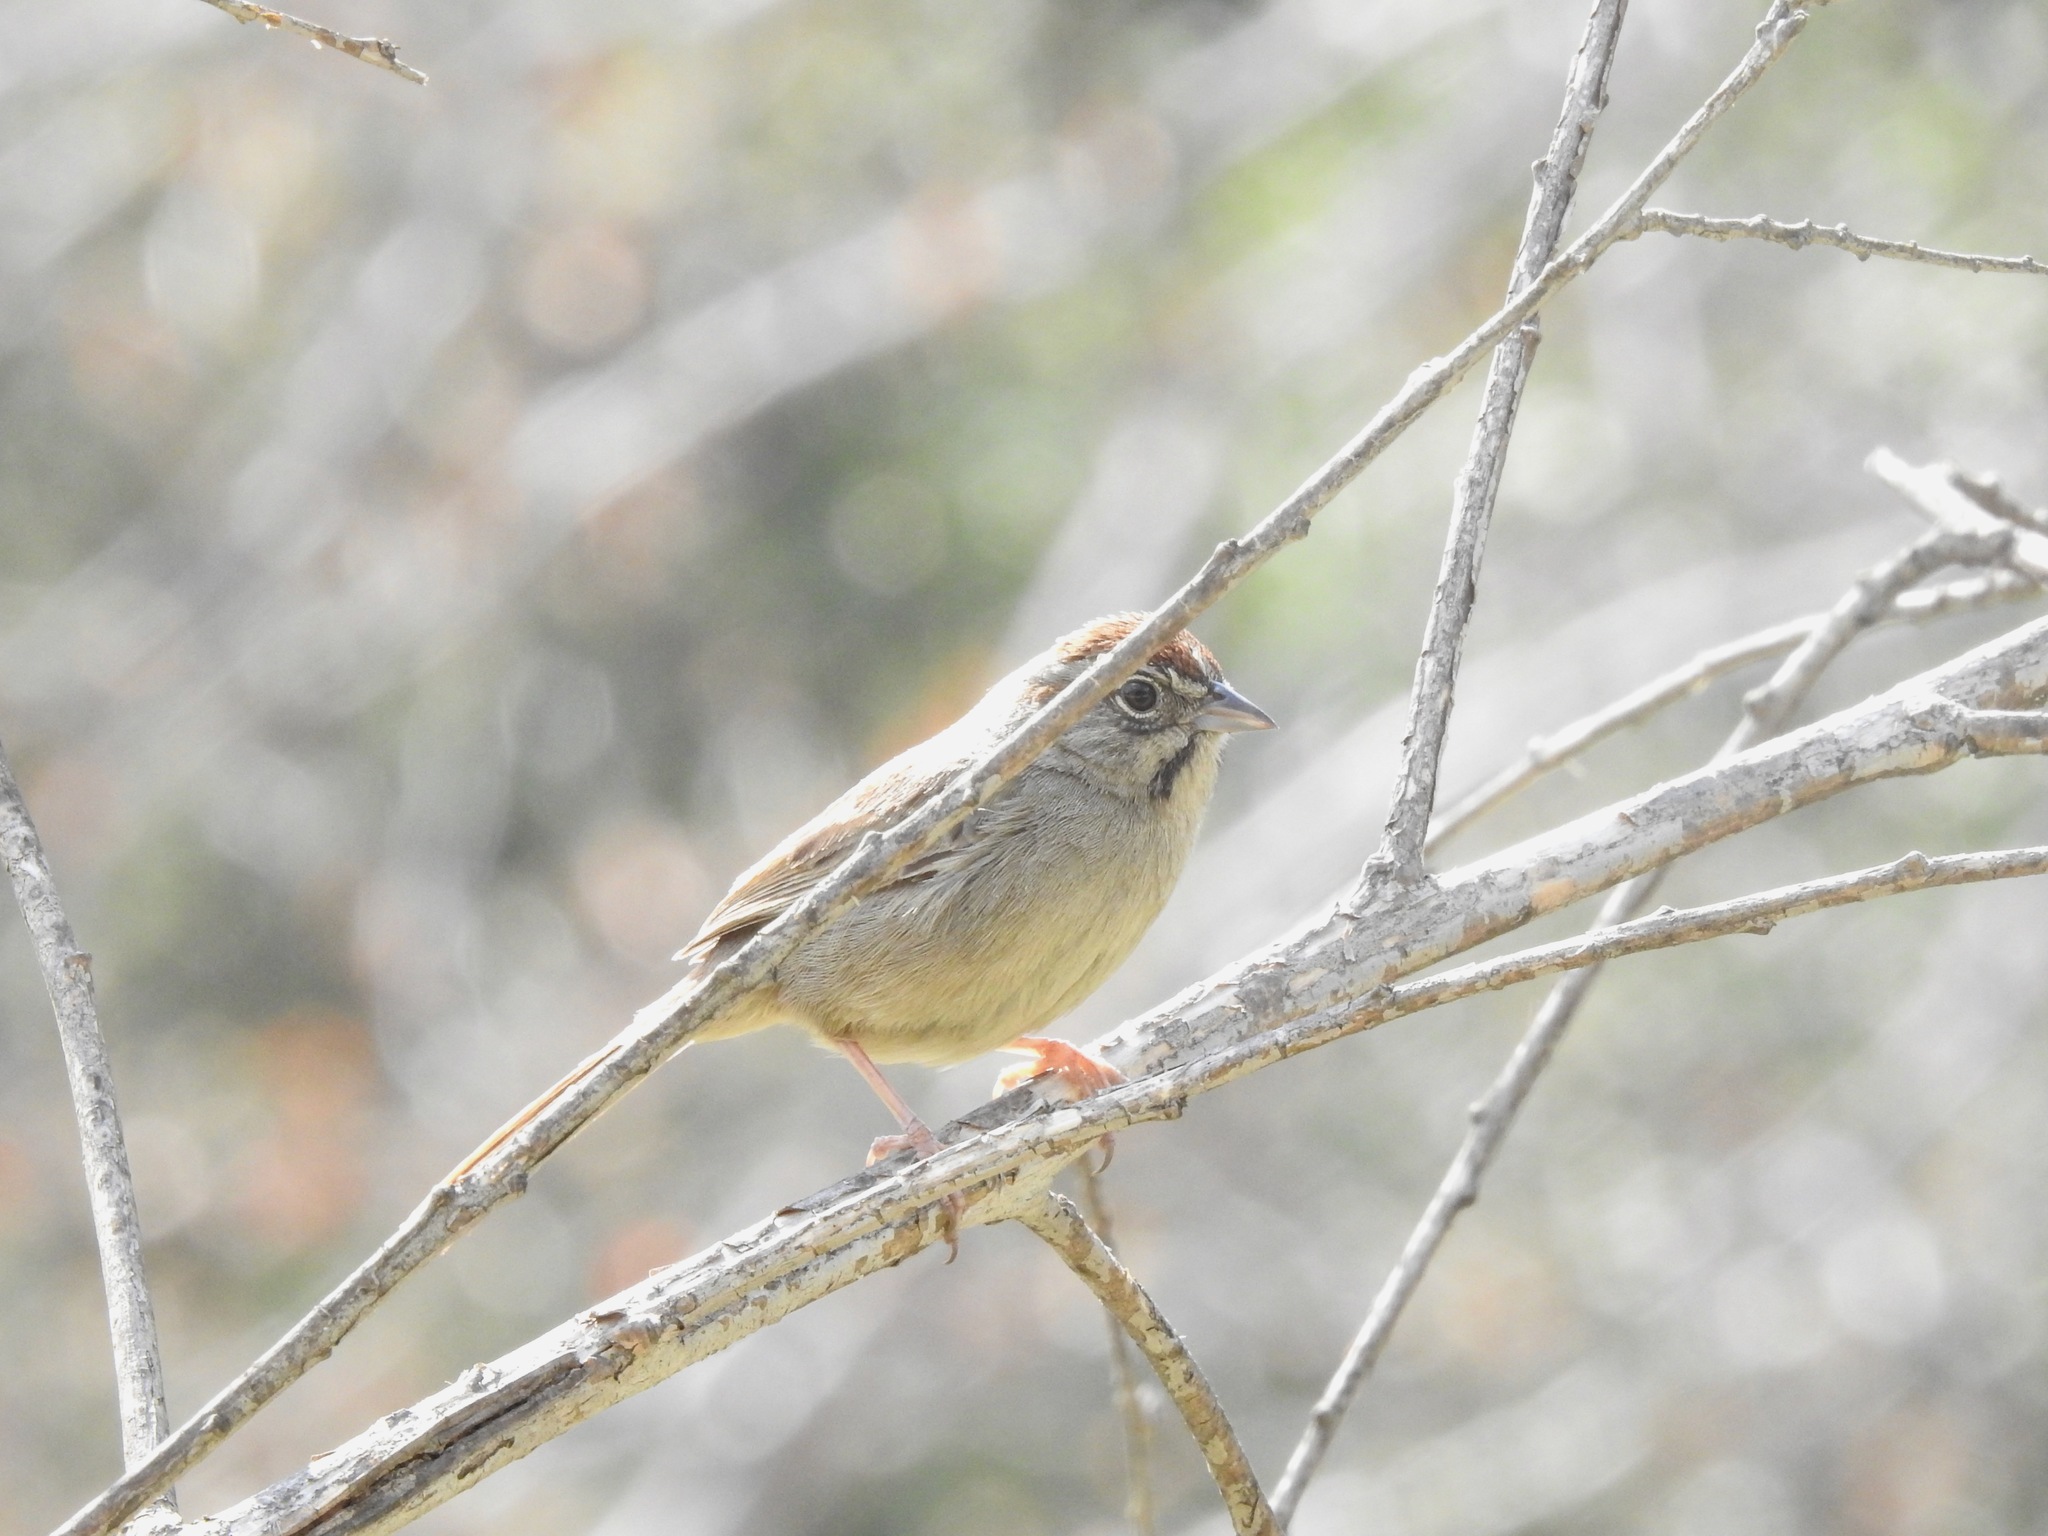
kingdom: Animalia
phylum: Chordata
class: Aves
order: Passeriformes
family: Passerellidae
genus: Aimophila
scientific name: Aimophila ruficeps
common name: Rufous-crowned sparrow
